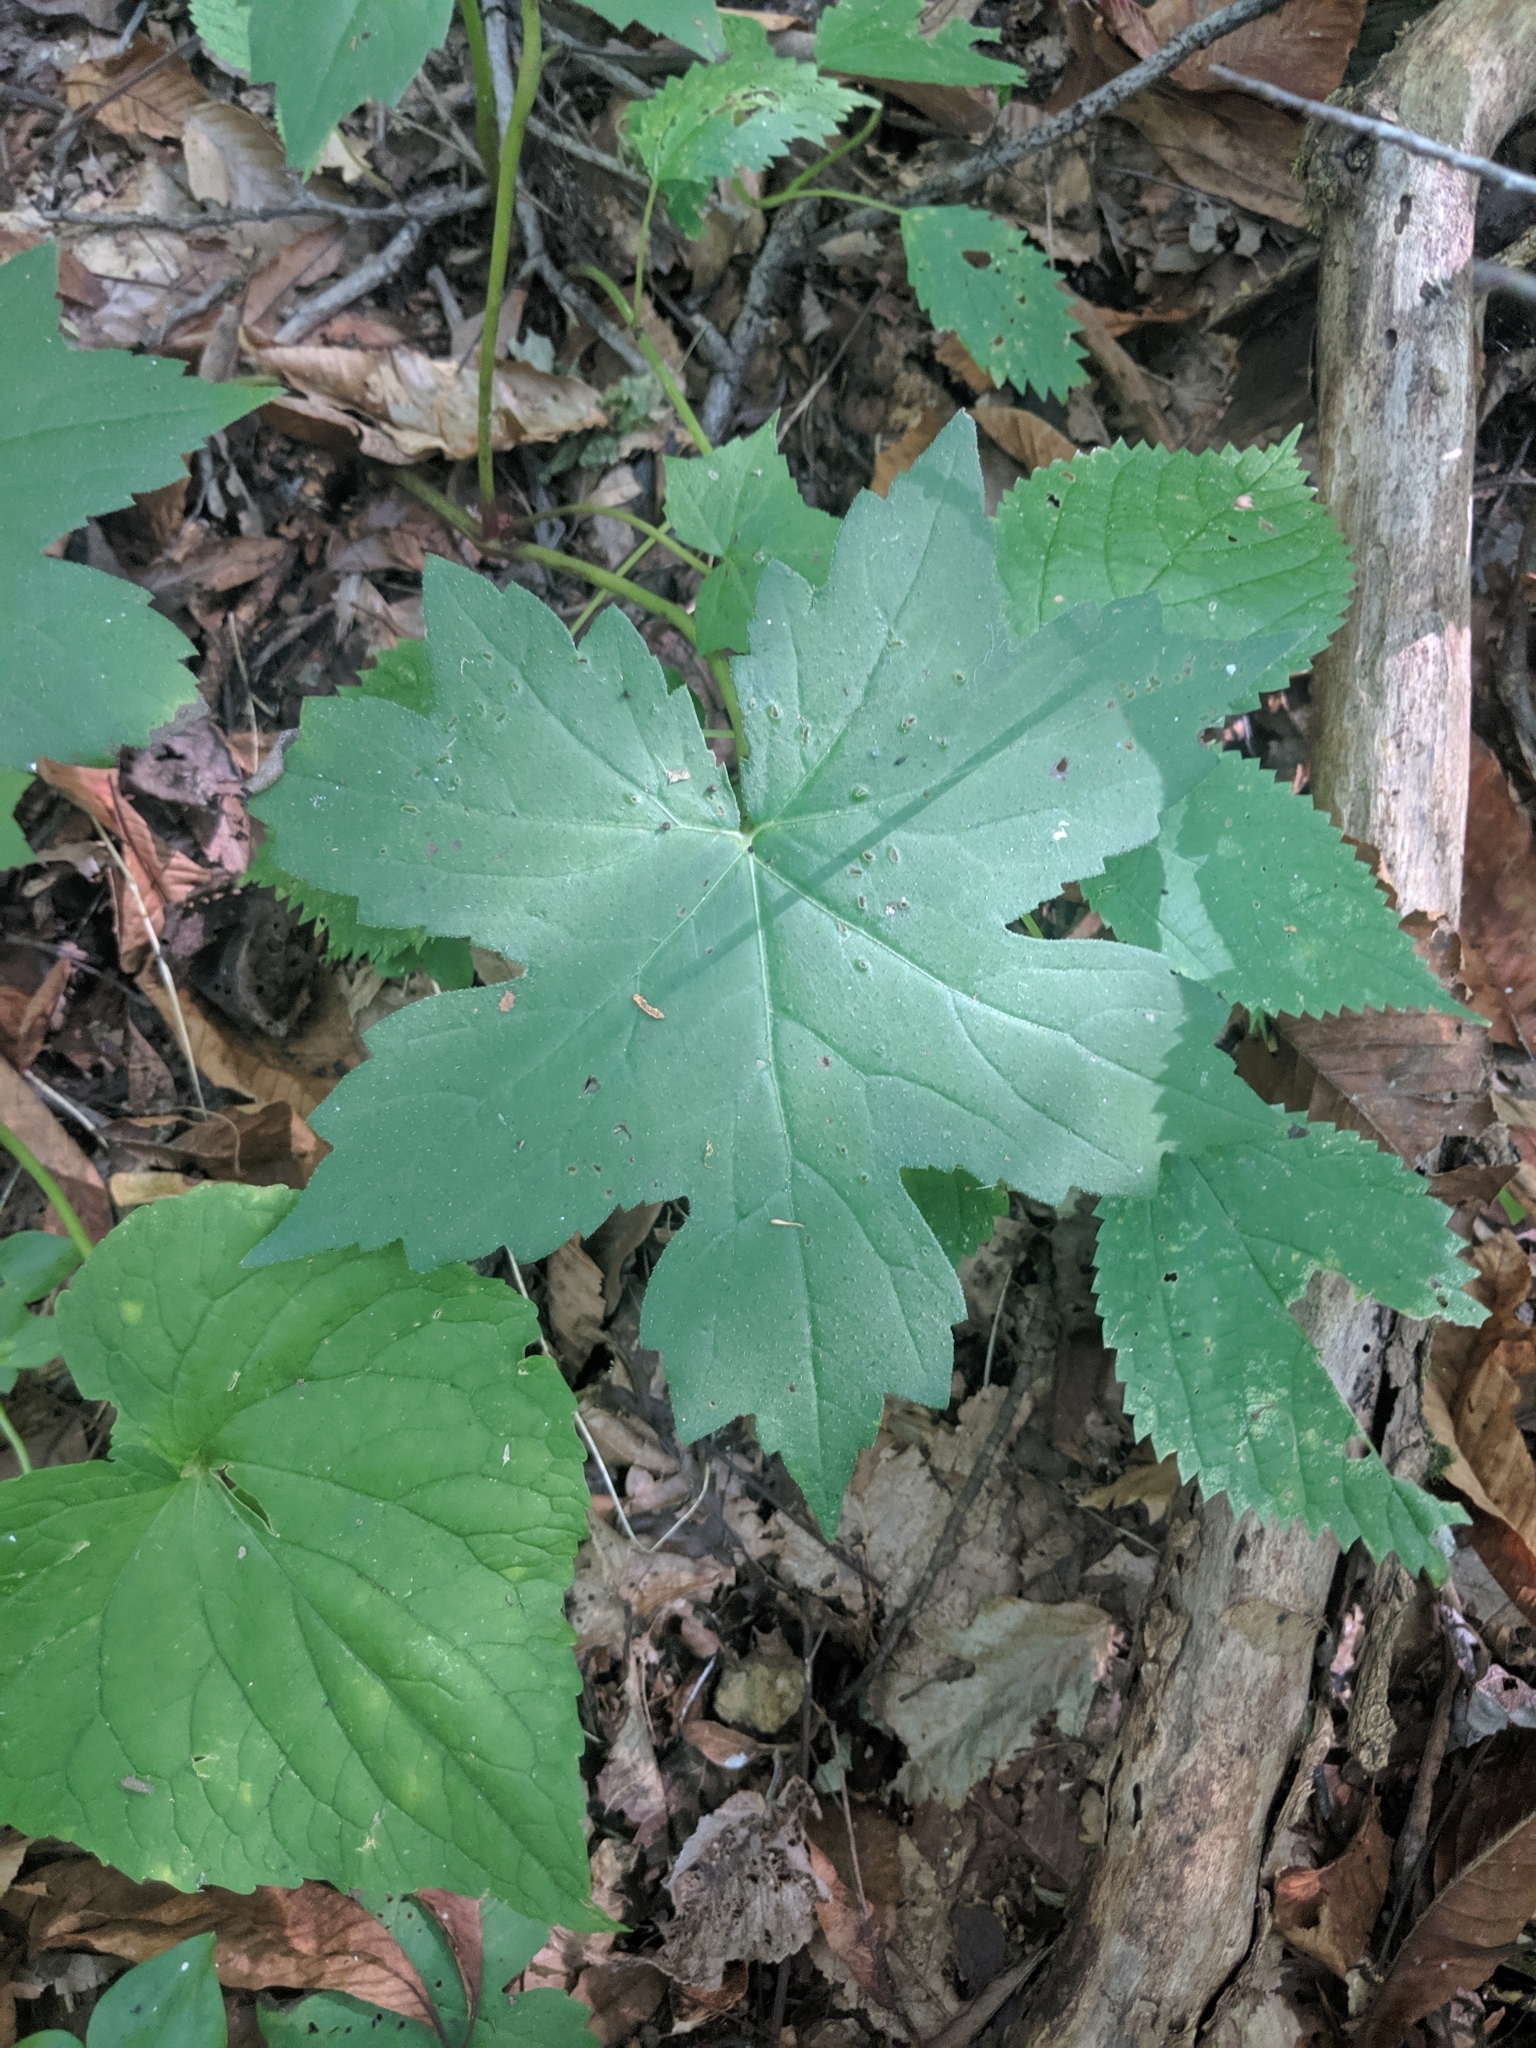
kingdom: Plantae
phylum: Tracheophyta
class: Magnoliopsida
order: Boraginales
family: Hydrophyllaceae
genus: Hydrophyllum
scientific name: Hydrophyllum canadense
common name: Canada waterleaf
